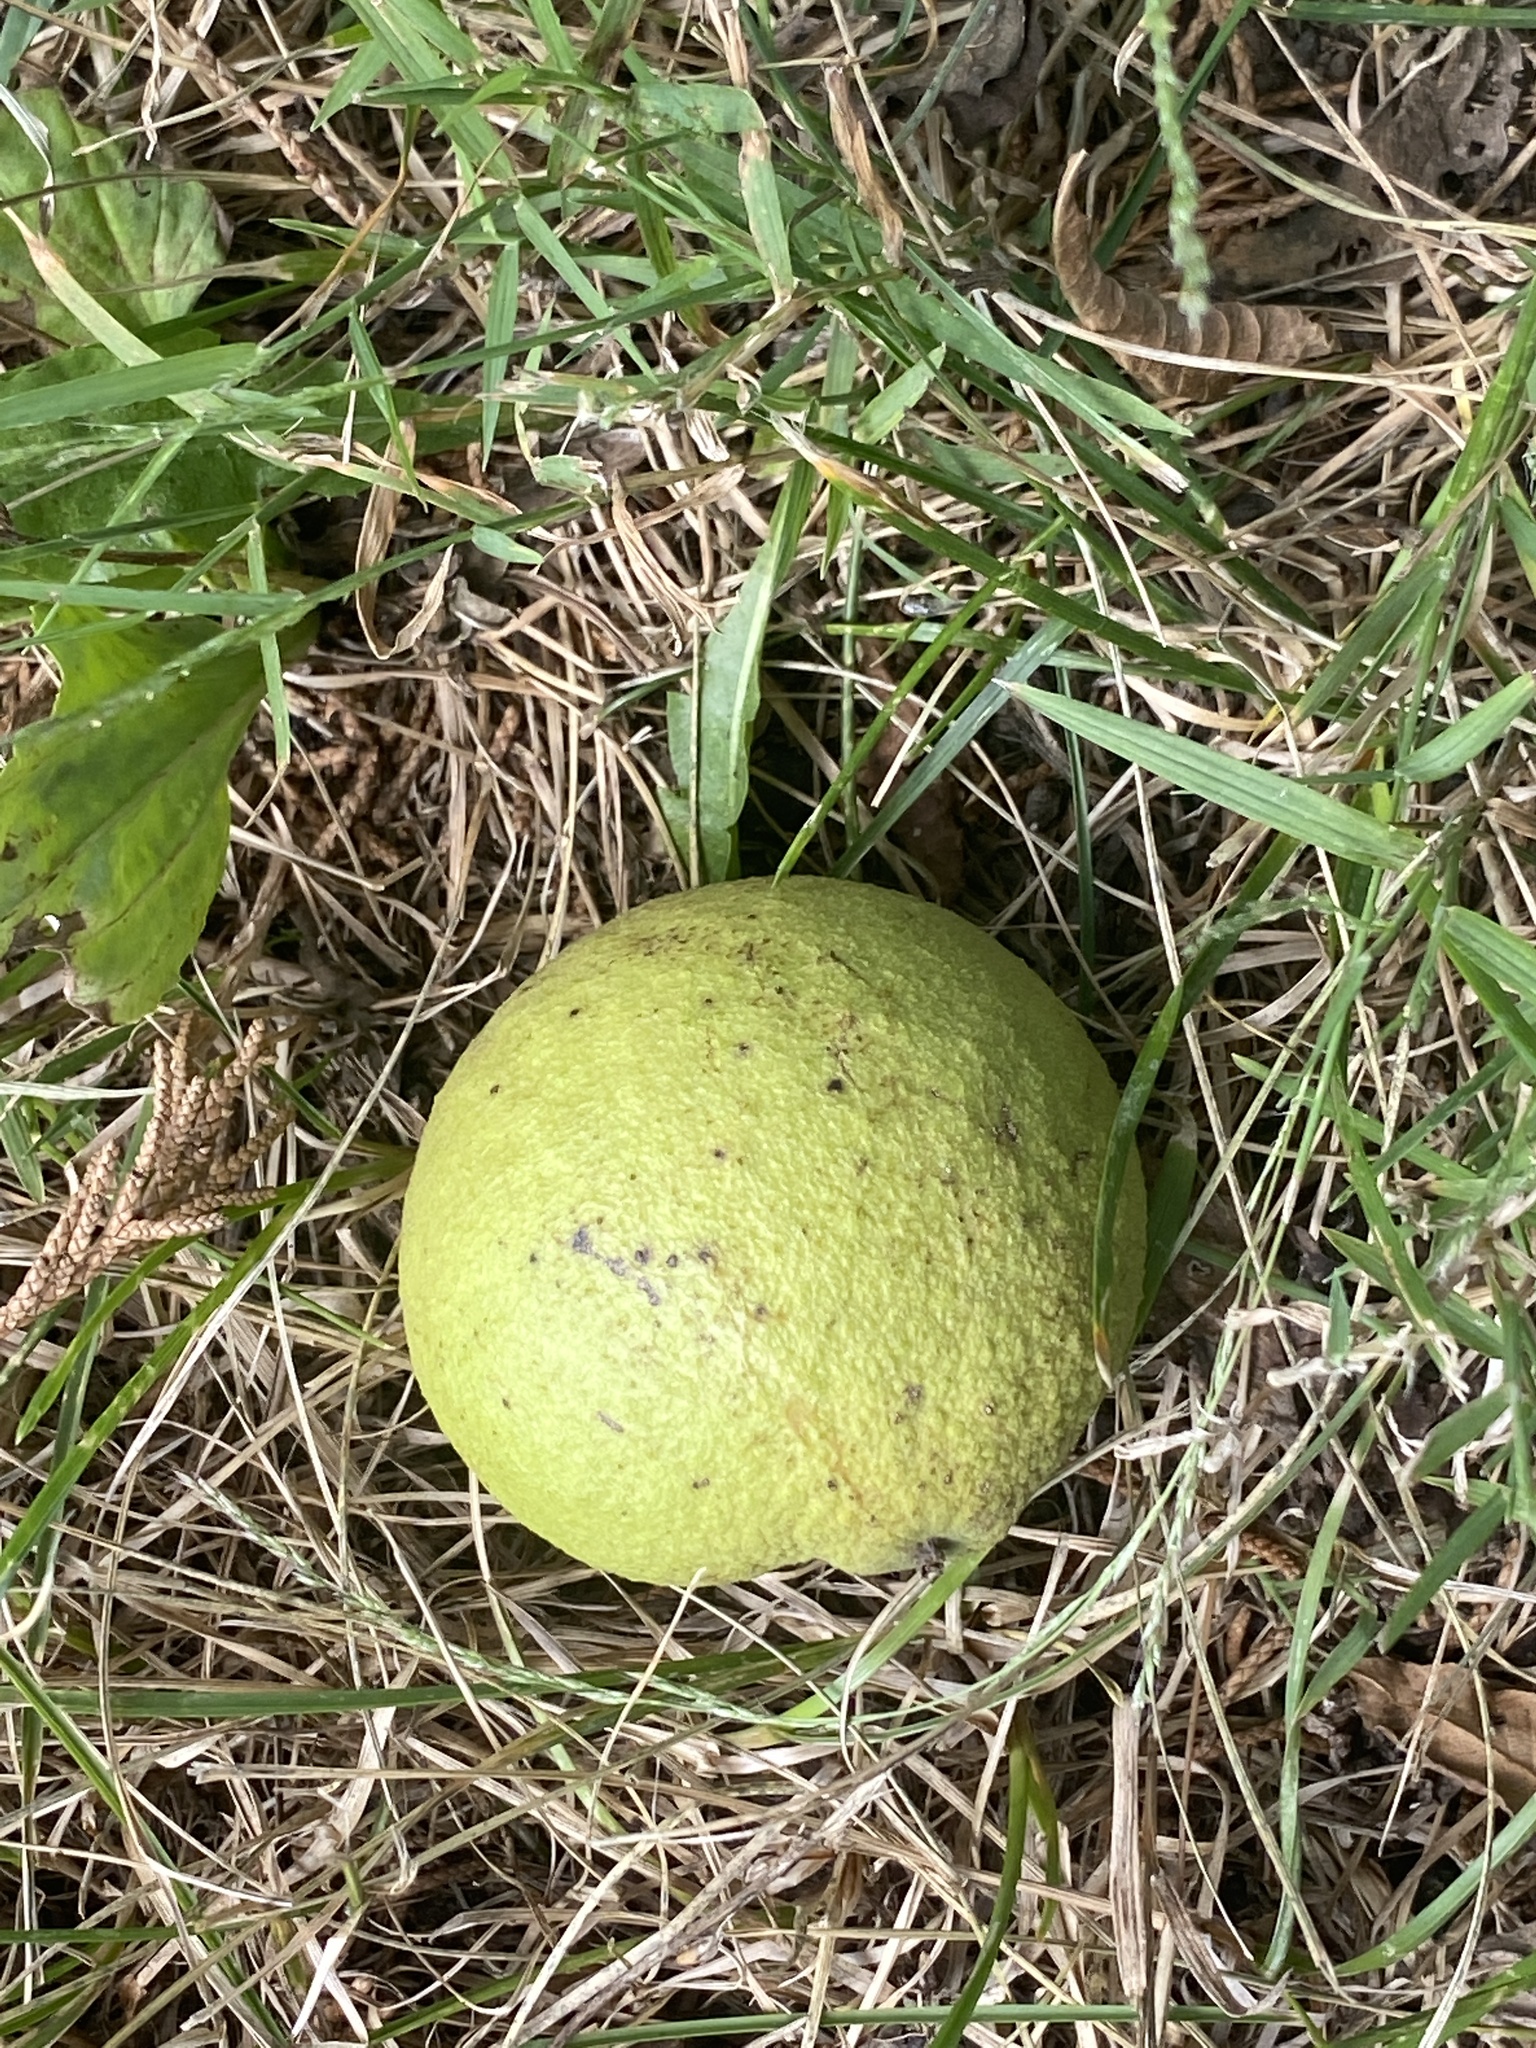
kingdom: Plantae
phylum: Tracheophyta
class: Magnoliopsida
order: Fagales
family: Juglandaceae
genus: Juglans
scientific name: Juglans nigra
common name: Black walnut
